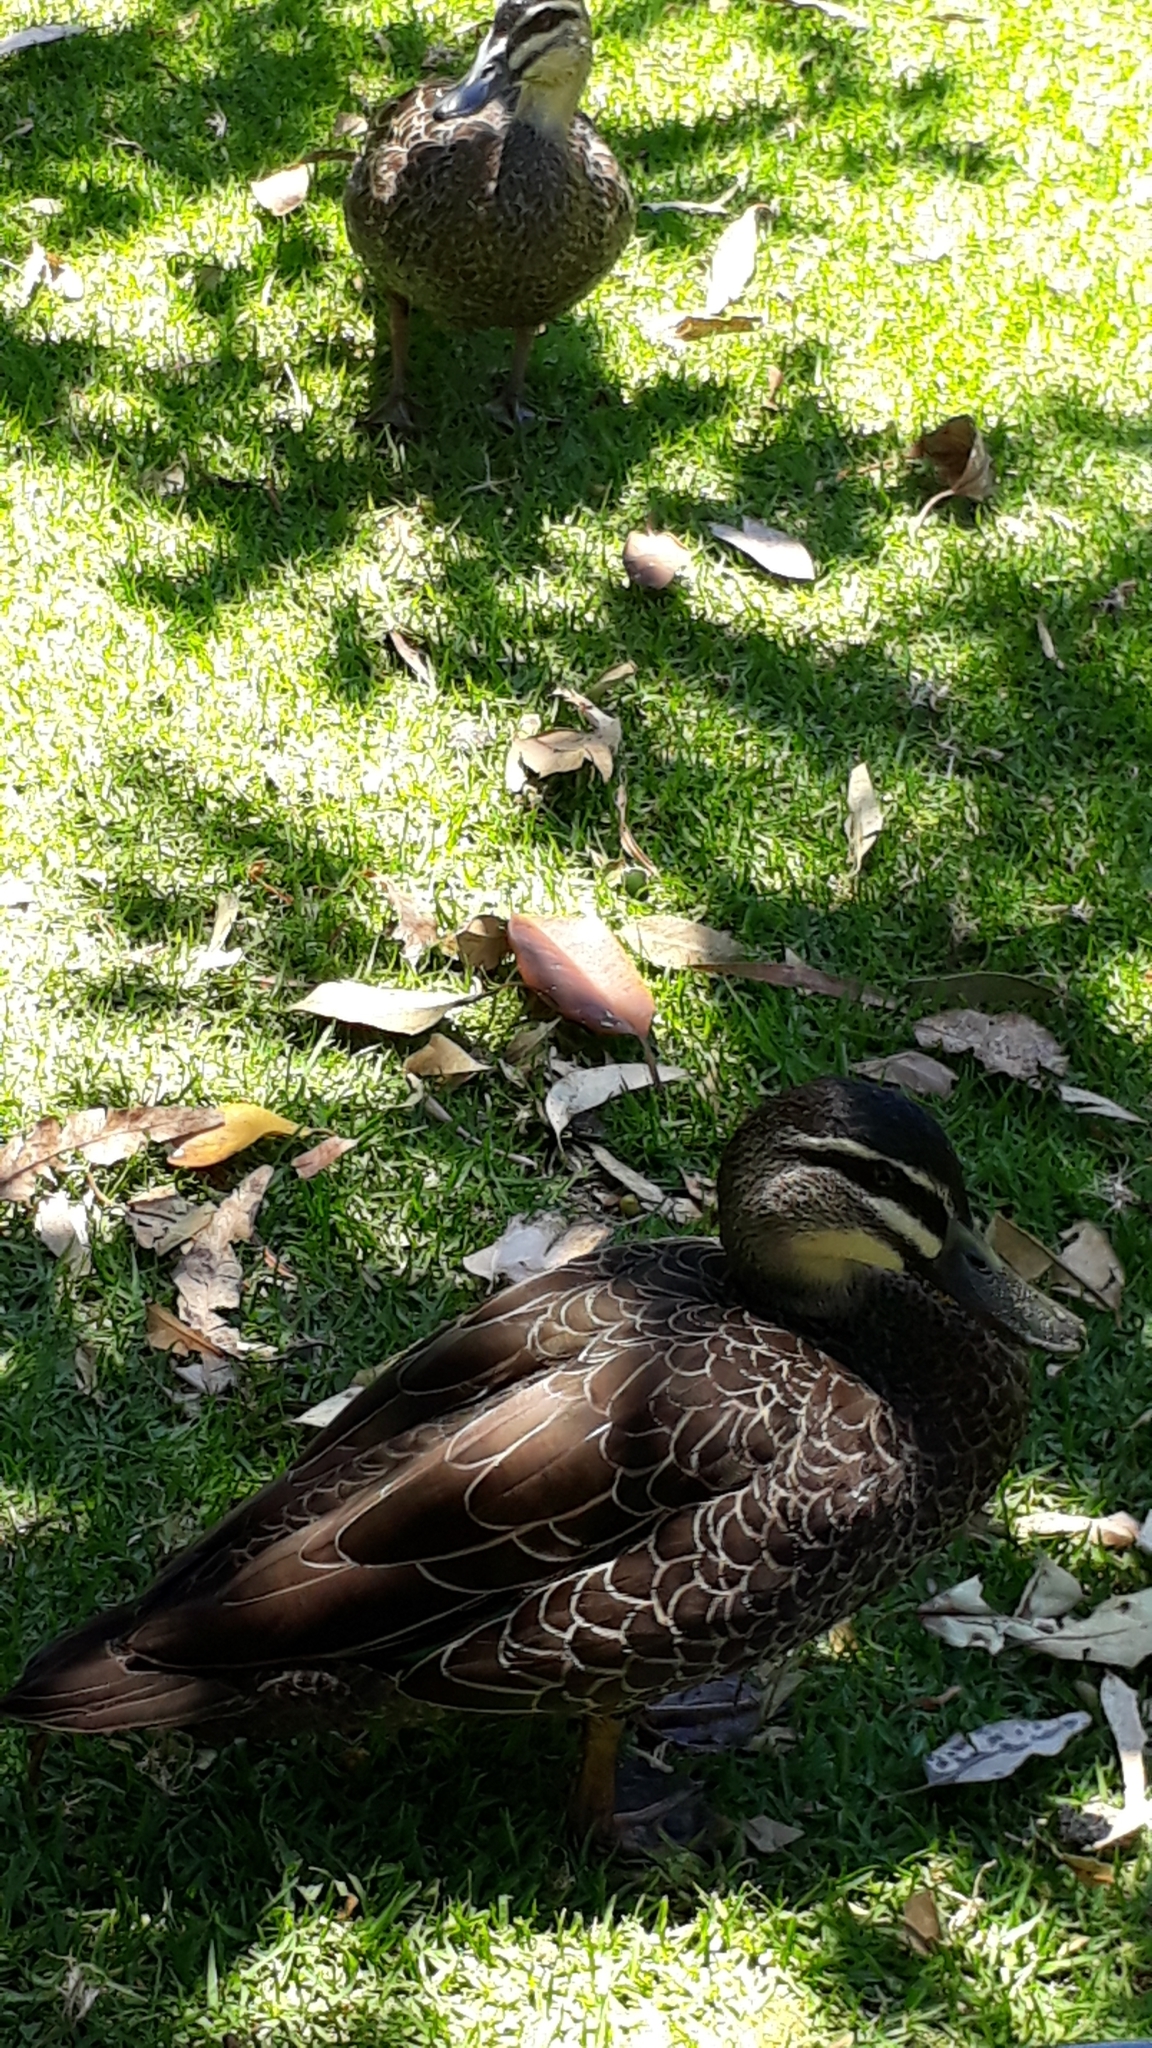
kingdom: Animalia
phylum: Chordata
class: Aves
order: Anseriformes
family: Anatidae
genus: Anas
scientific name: Anas superciliosa
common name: Pacific black duck
